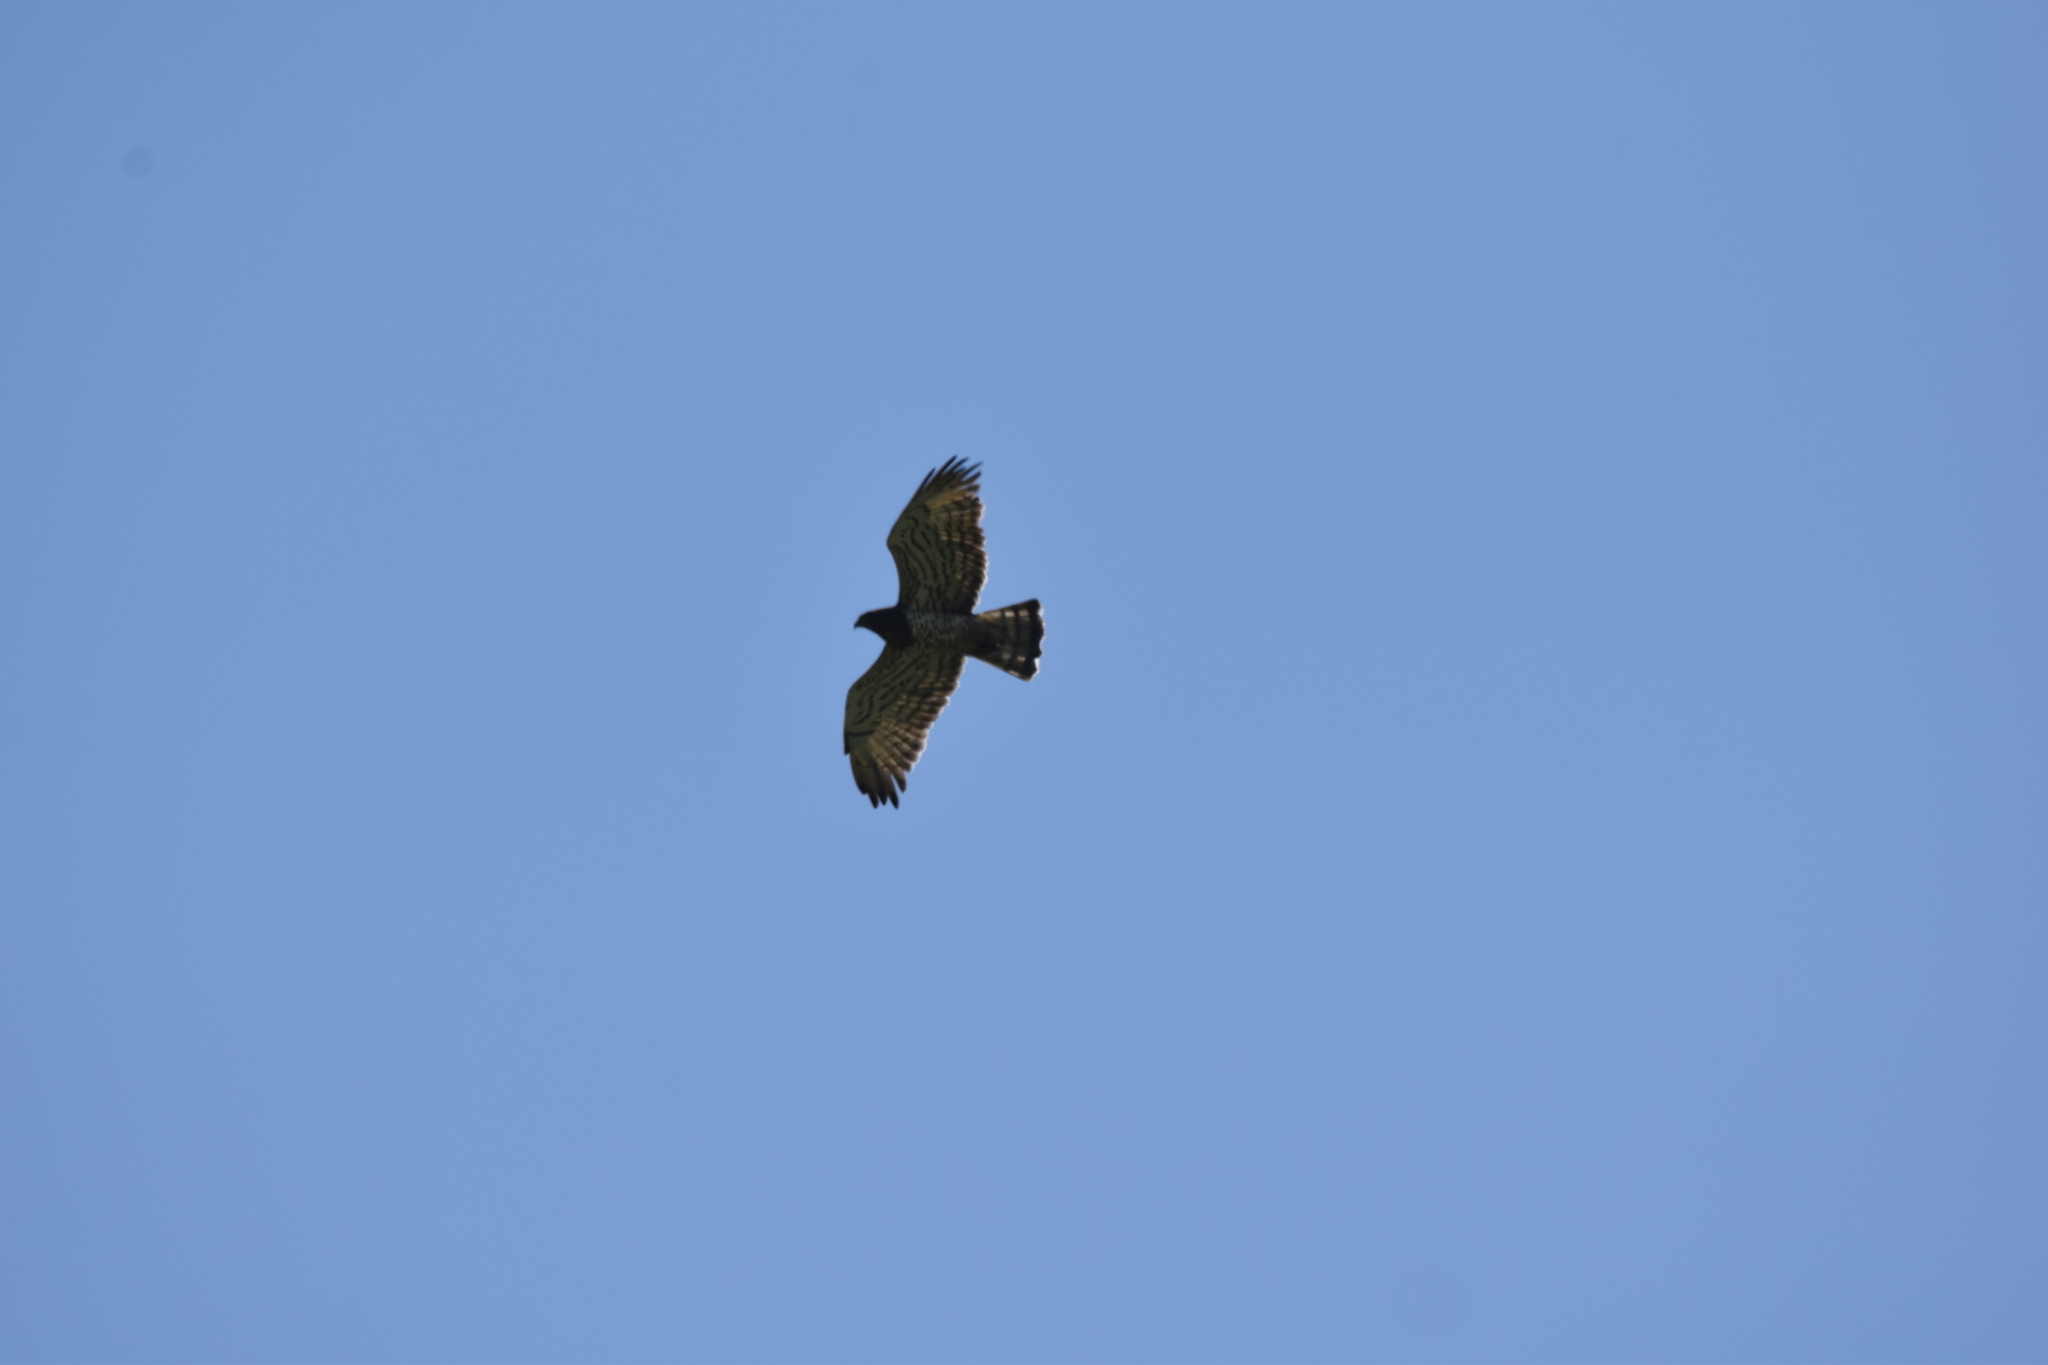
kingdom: Animalia
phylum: Chordata
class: Aves
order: Accipitriformes
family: Accipitridae
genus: Circaetus
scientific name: Circaetus gallicus
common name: Short-toed snake eagle
